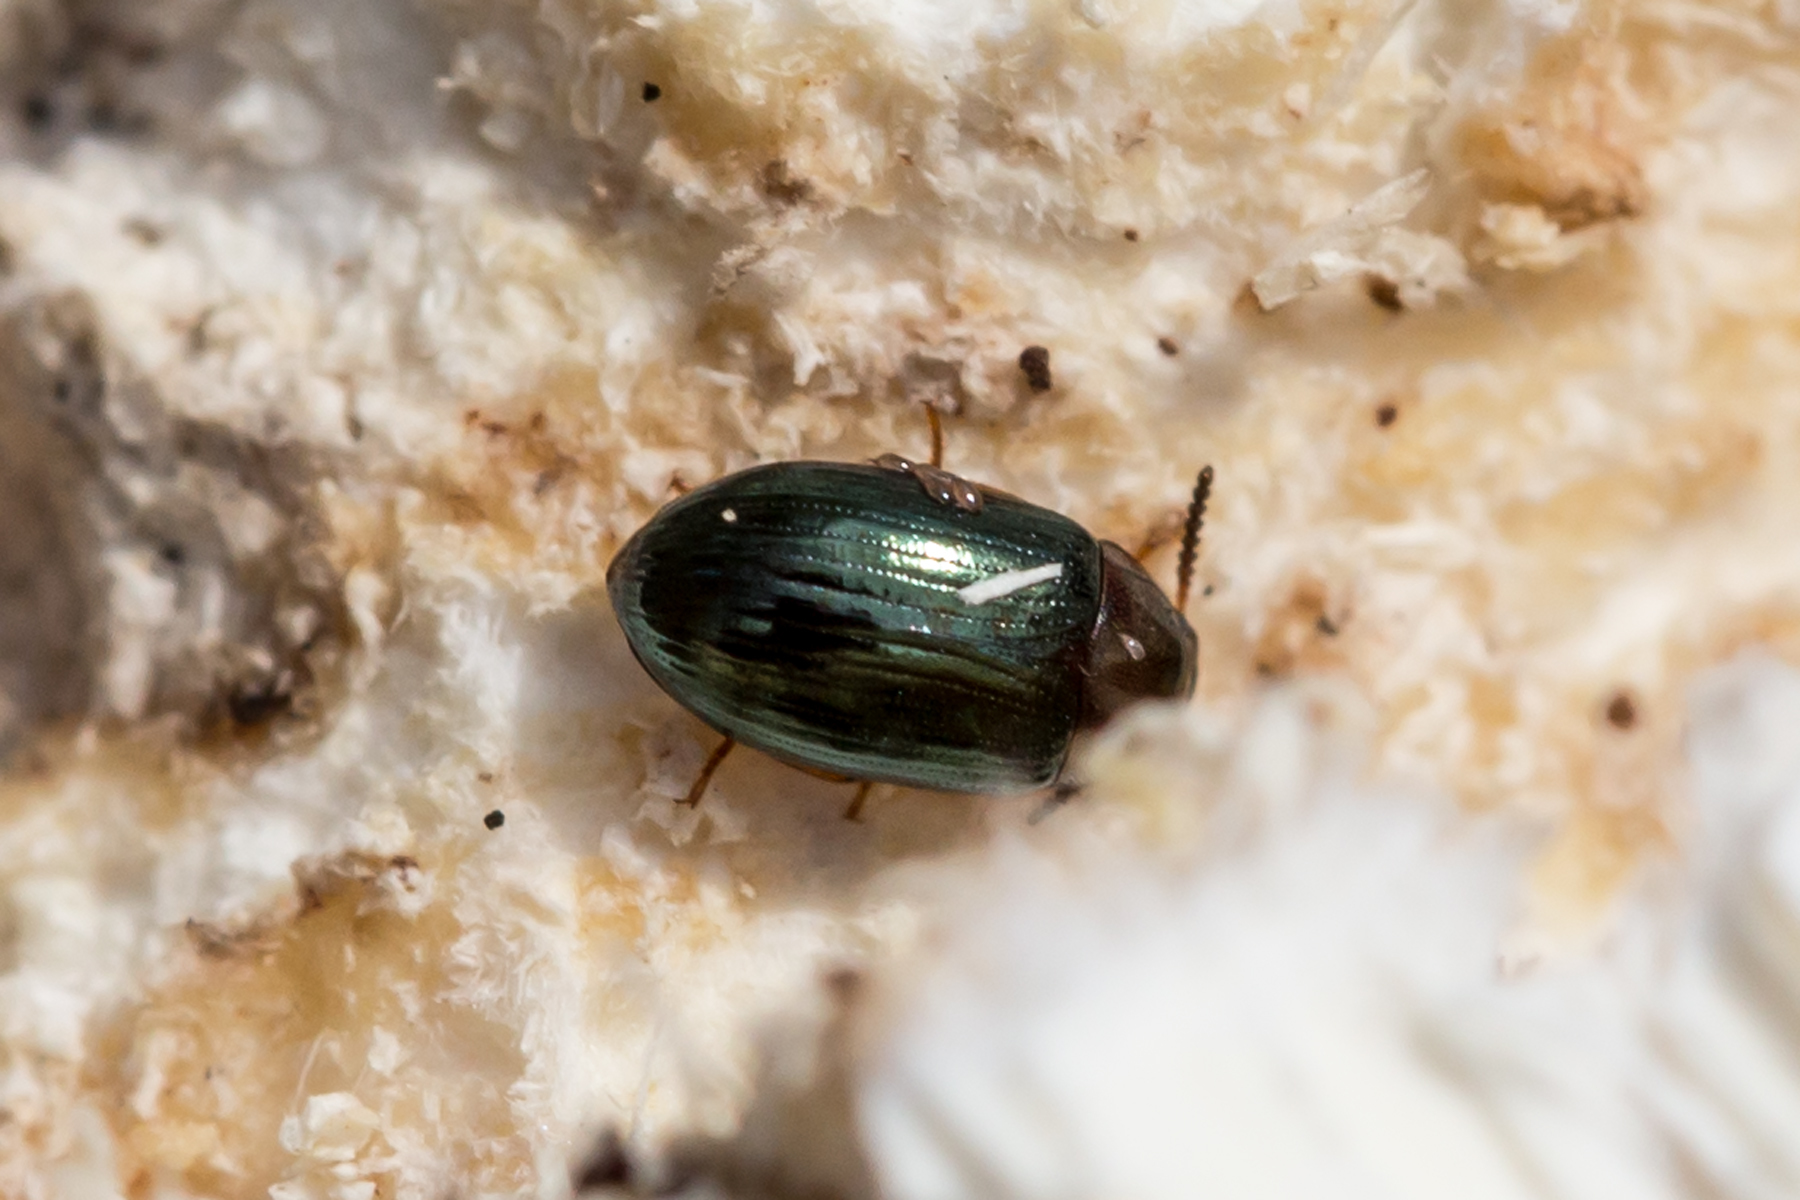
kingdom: Animalia
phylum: Arthropoda
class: Insecta
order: Coleoptera
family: Tenebrionidae
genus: Neomida
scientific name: Neomida bicornis
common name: Two-horned darkling beetle
